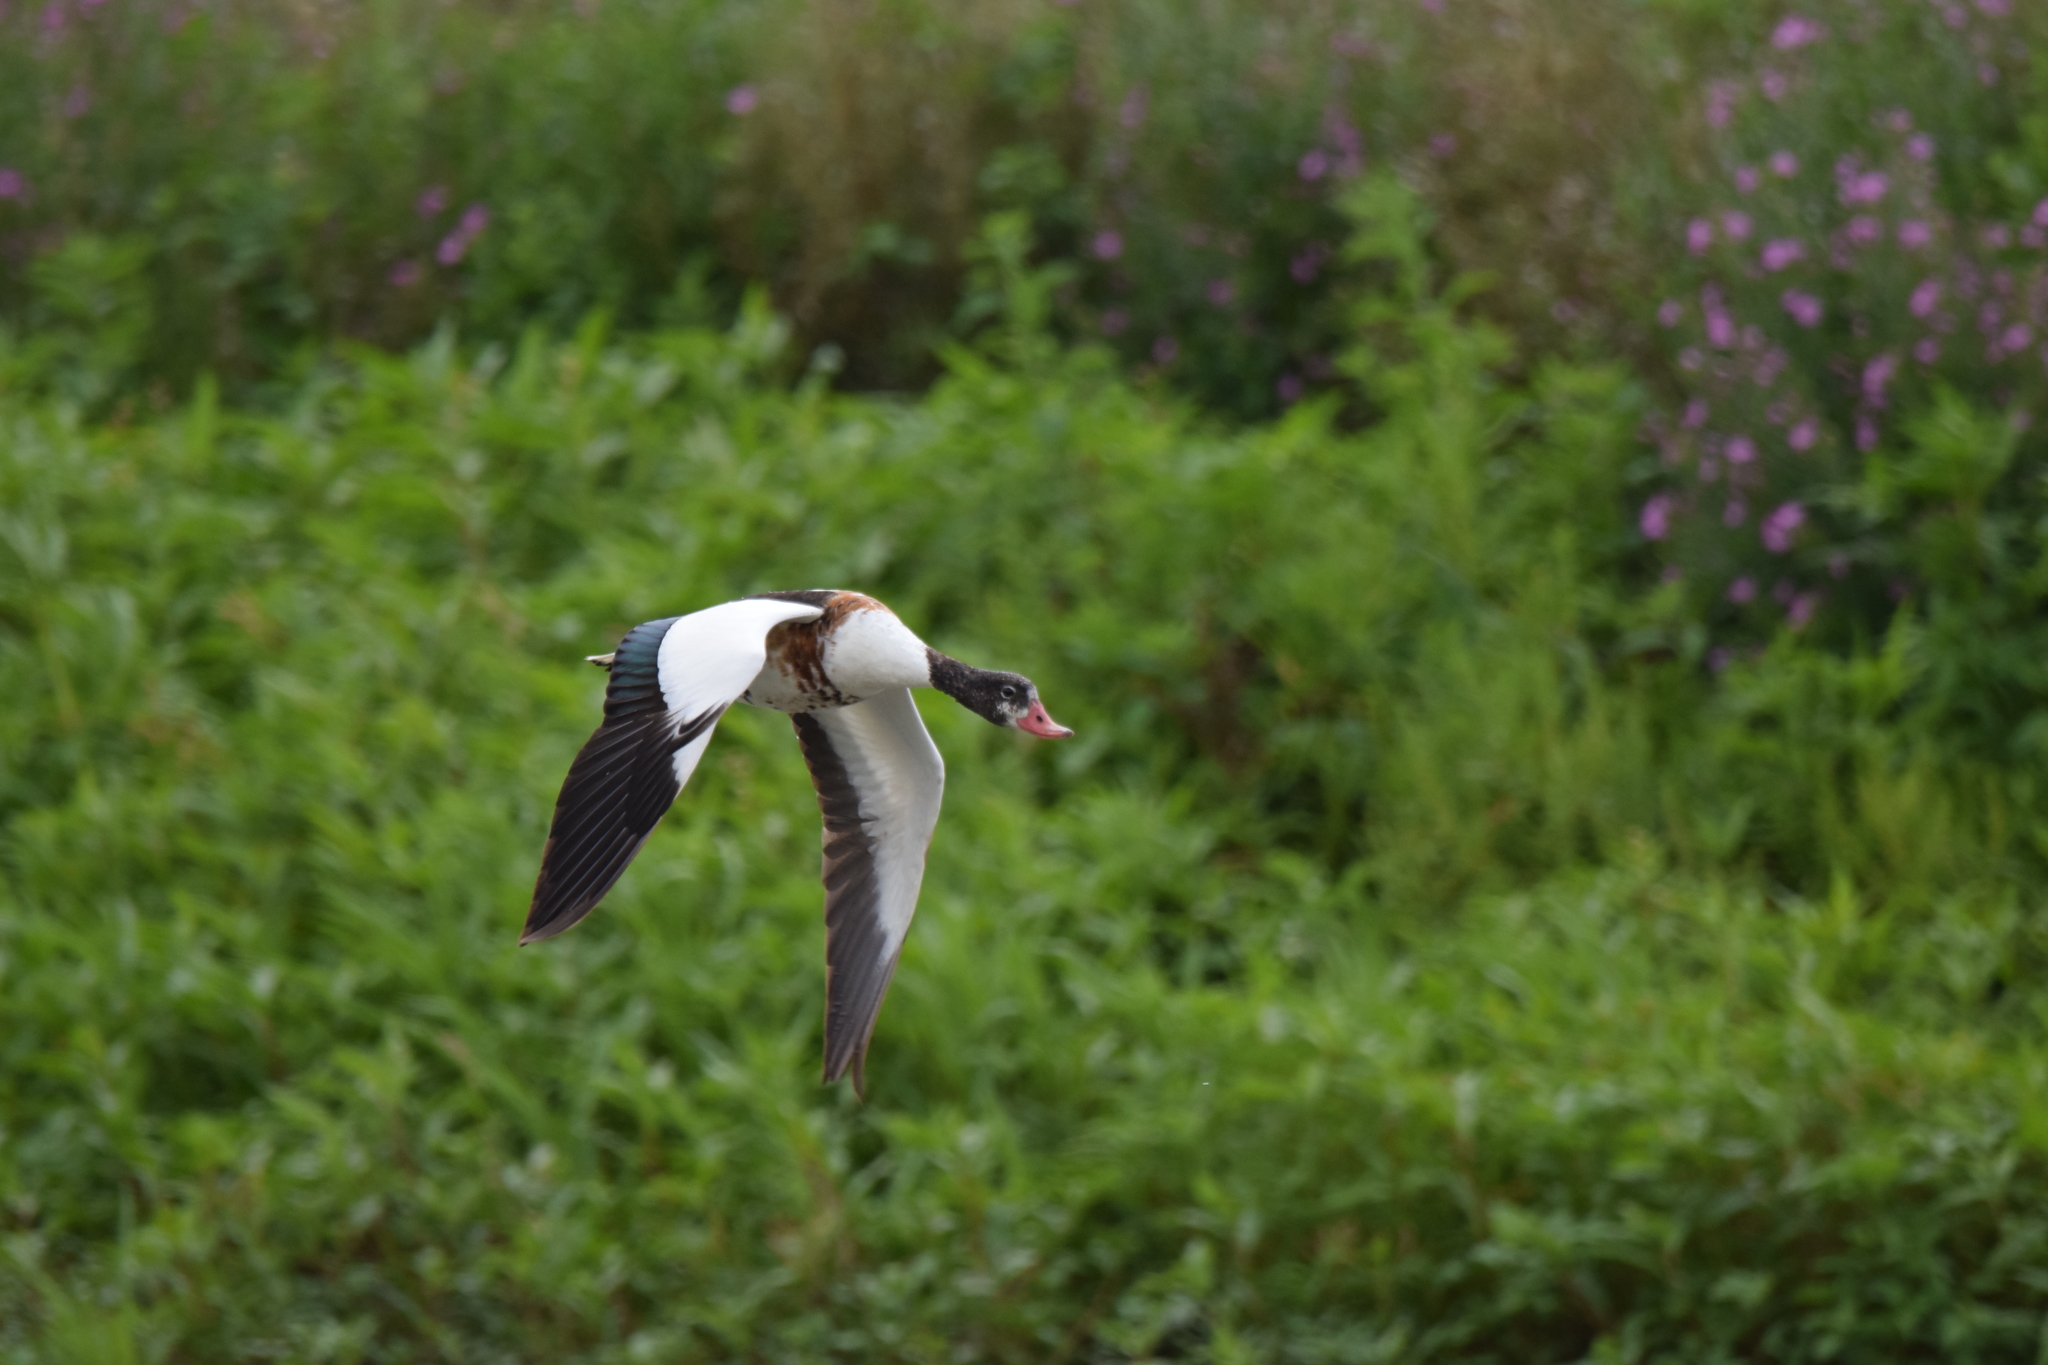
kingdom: Animalia
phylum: Chordata
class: Aves
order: Anseriformes
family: Anatidae
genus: Tadorna
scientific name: Tadorna tadorna
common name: Common shelduck
